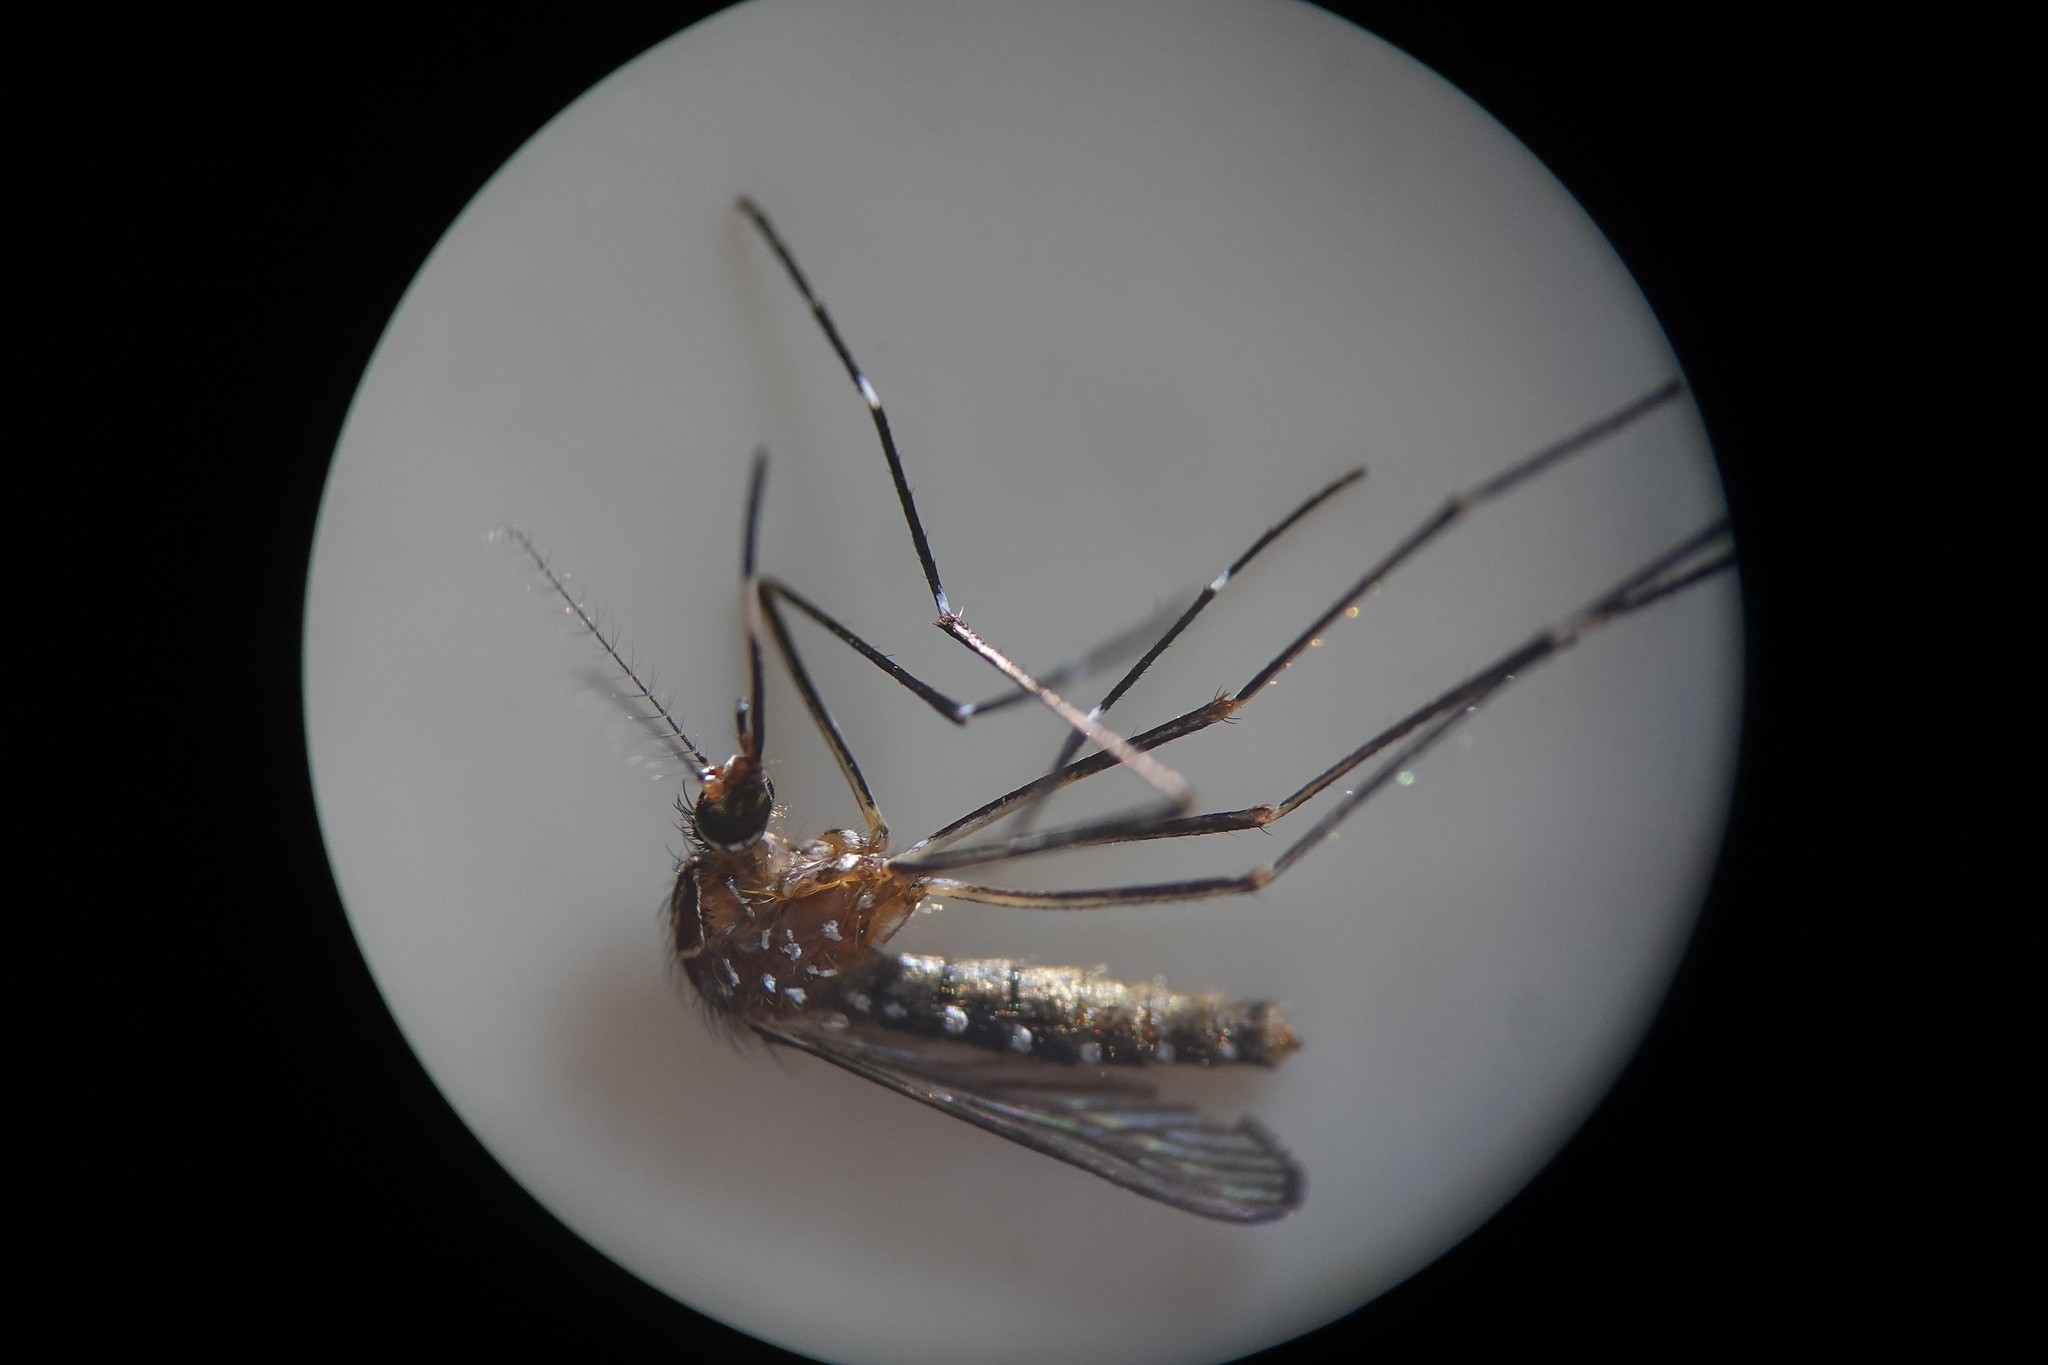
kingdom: Animalia
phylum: Arthropoda
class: Insecta
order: Diptera
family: Culicidae
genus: Aedes
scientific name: Aedes notoscriptus
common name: Australian backyard mosquito
